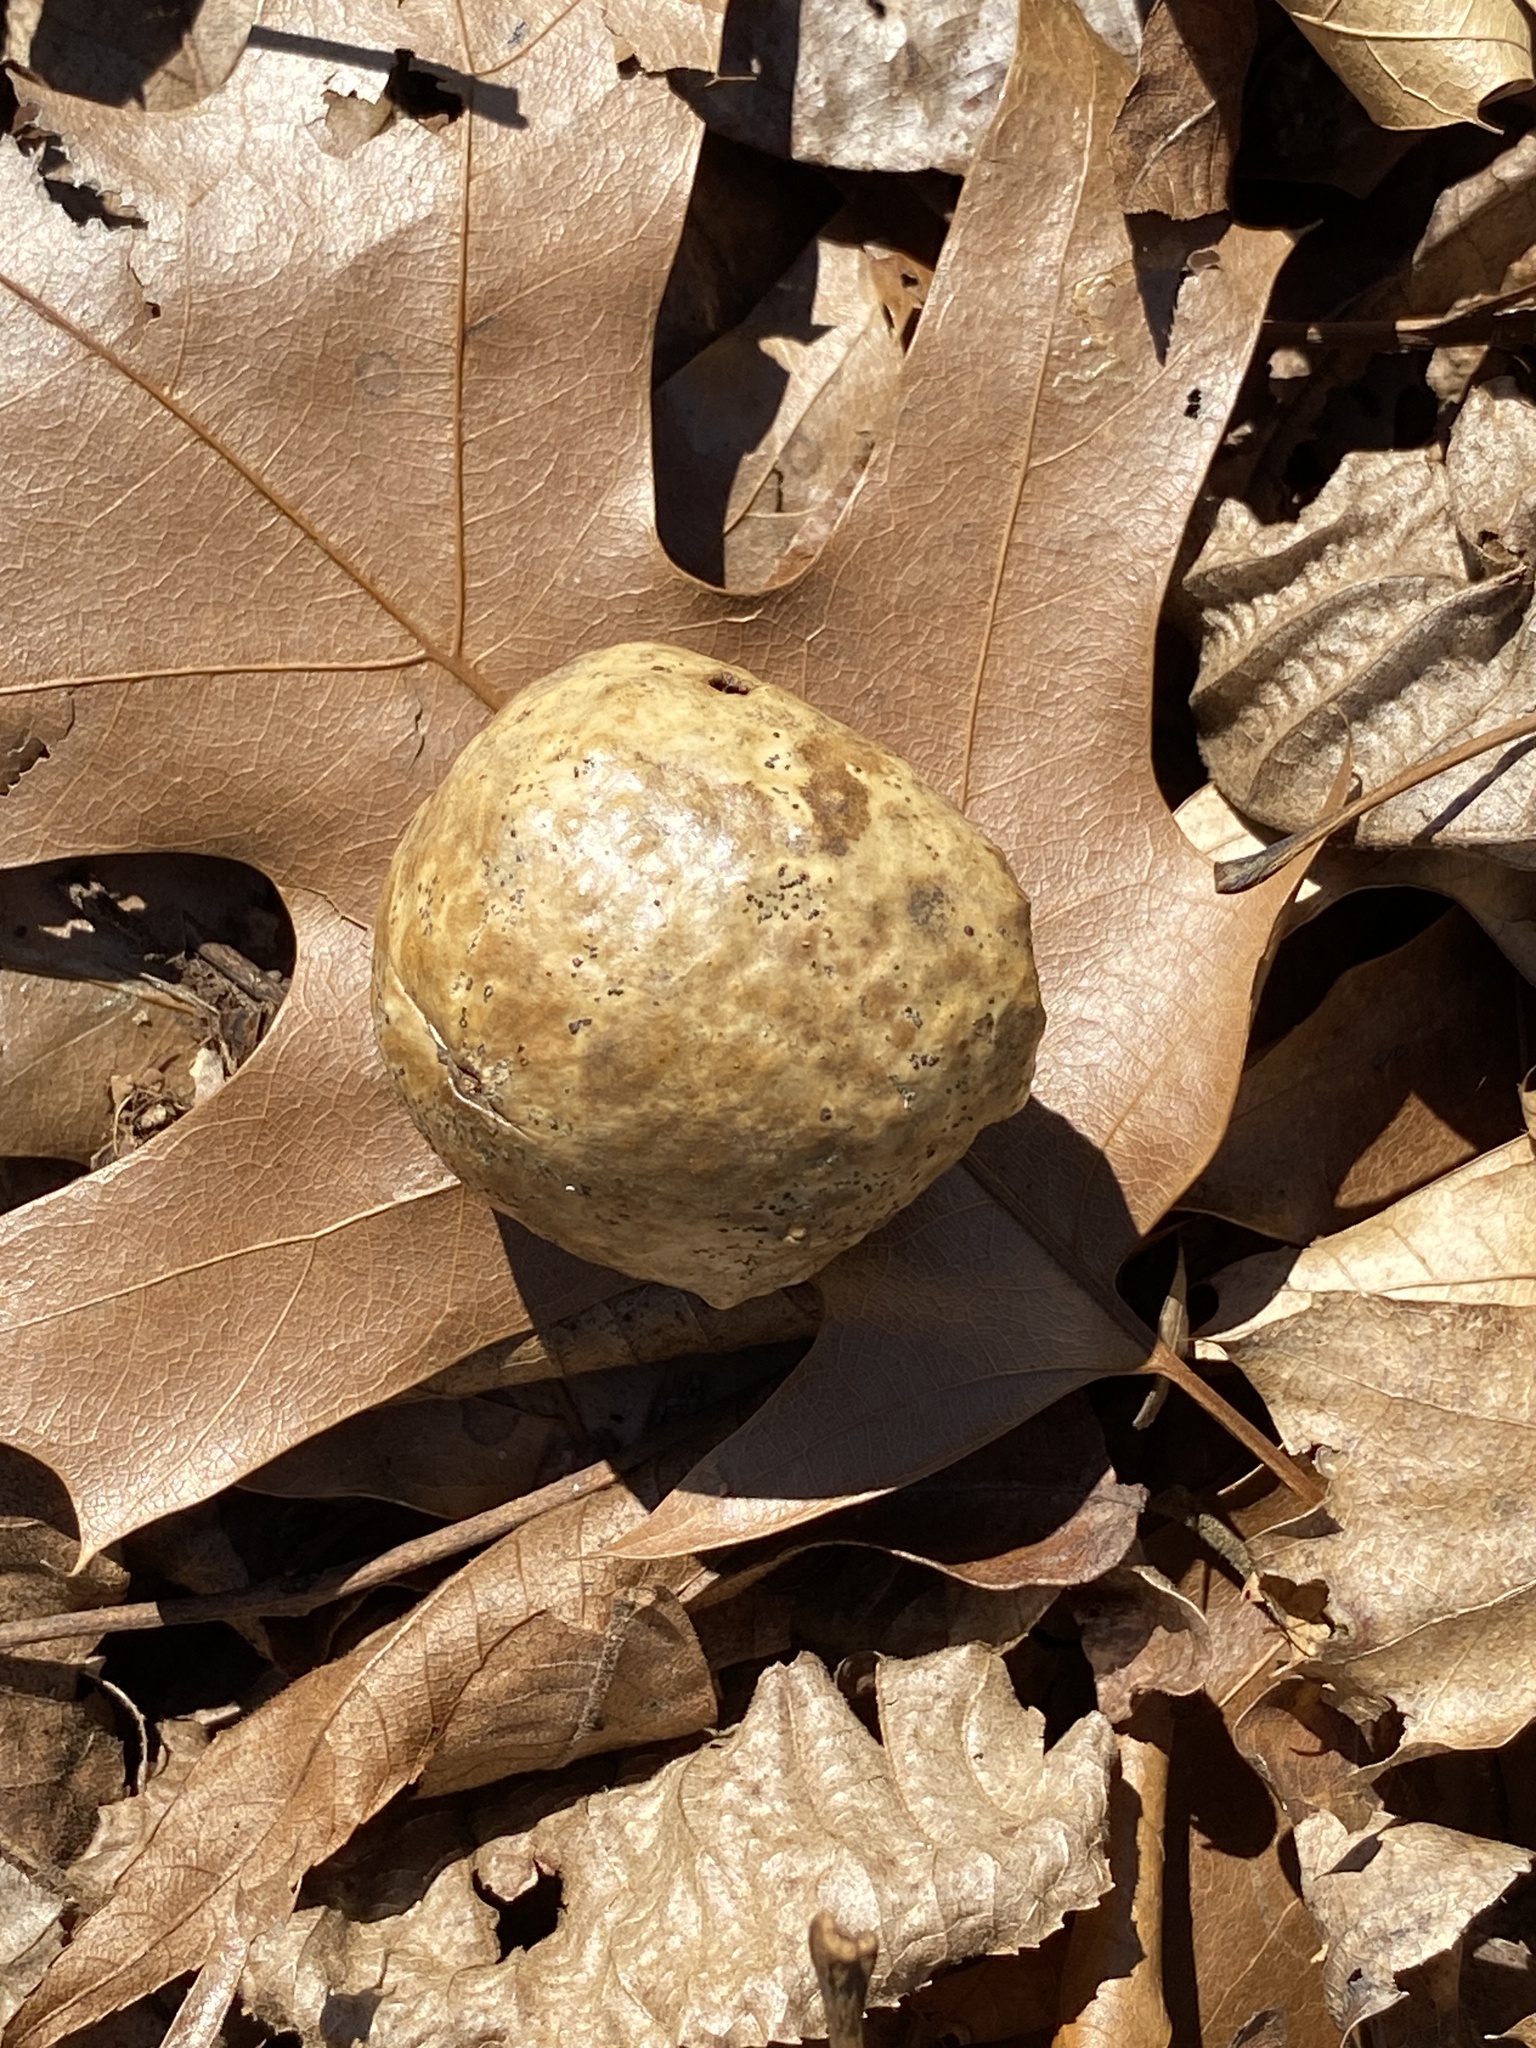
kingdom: Animalia
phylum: Arthropoda
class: Insecta
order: Hymenoptera
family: Cynipidae
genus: Amphibolips
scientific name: Amphibolips
